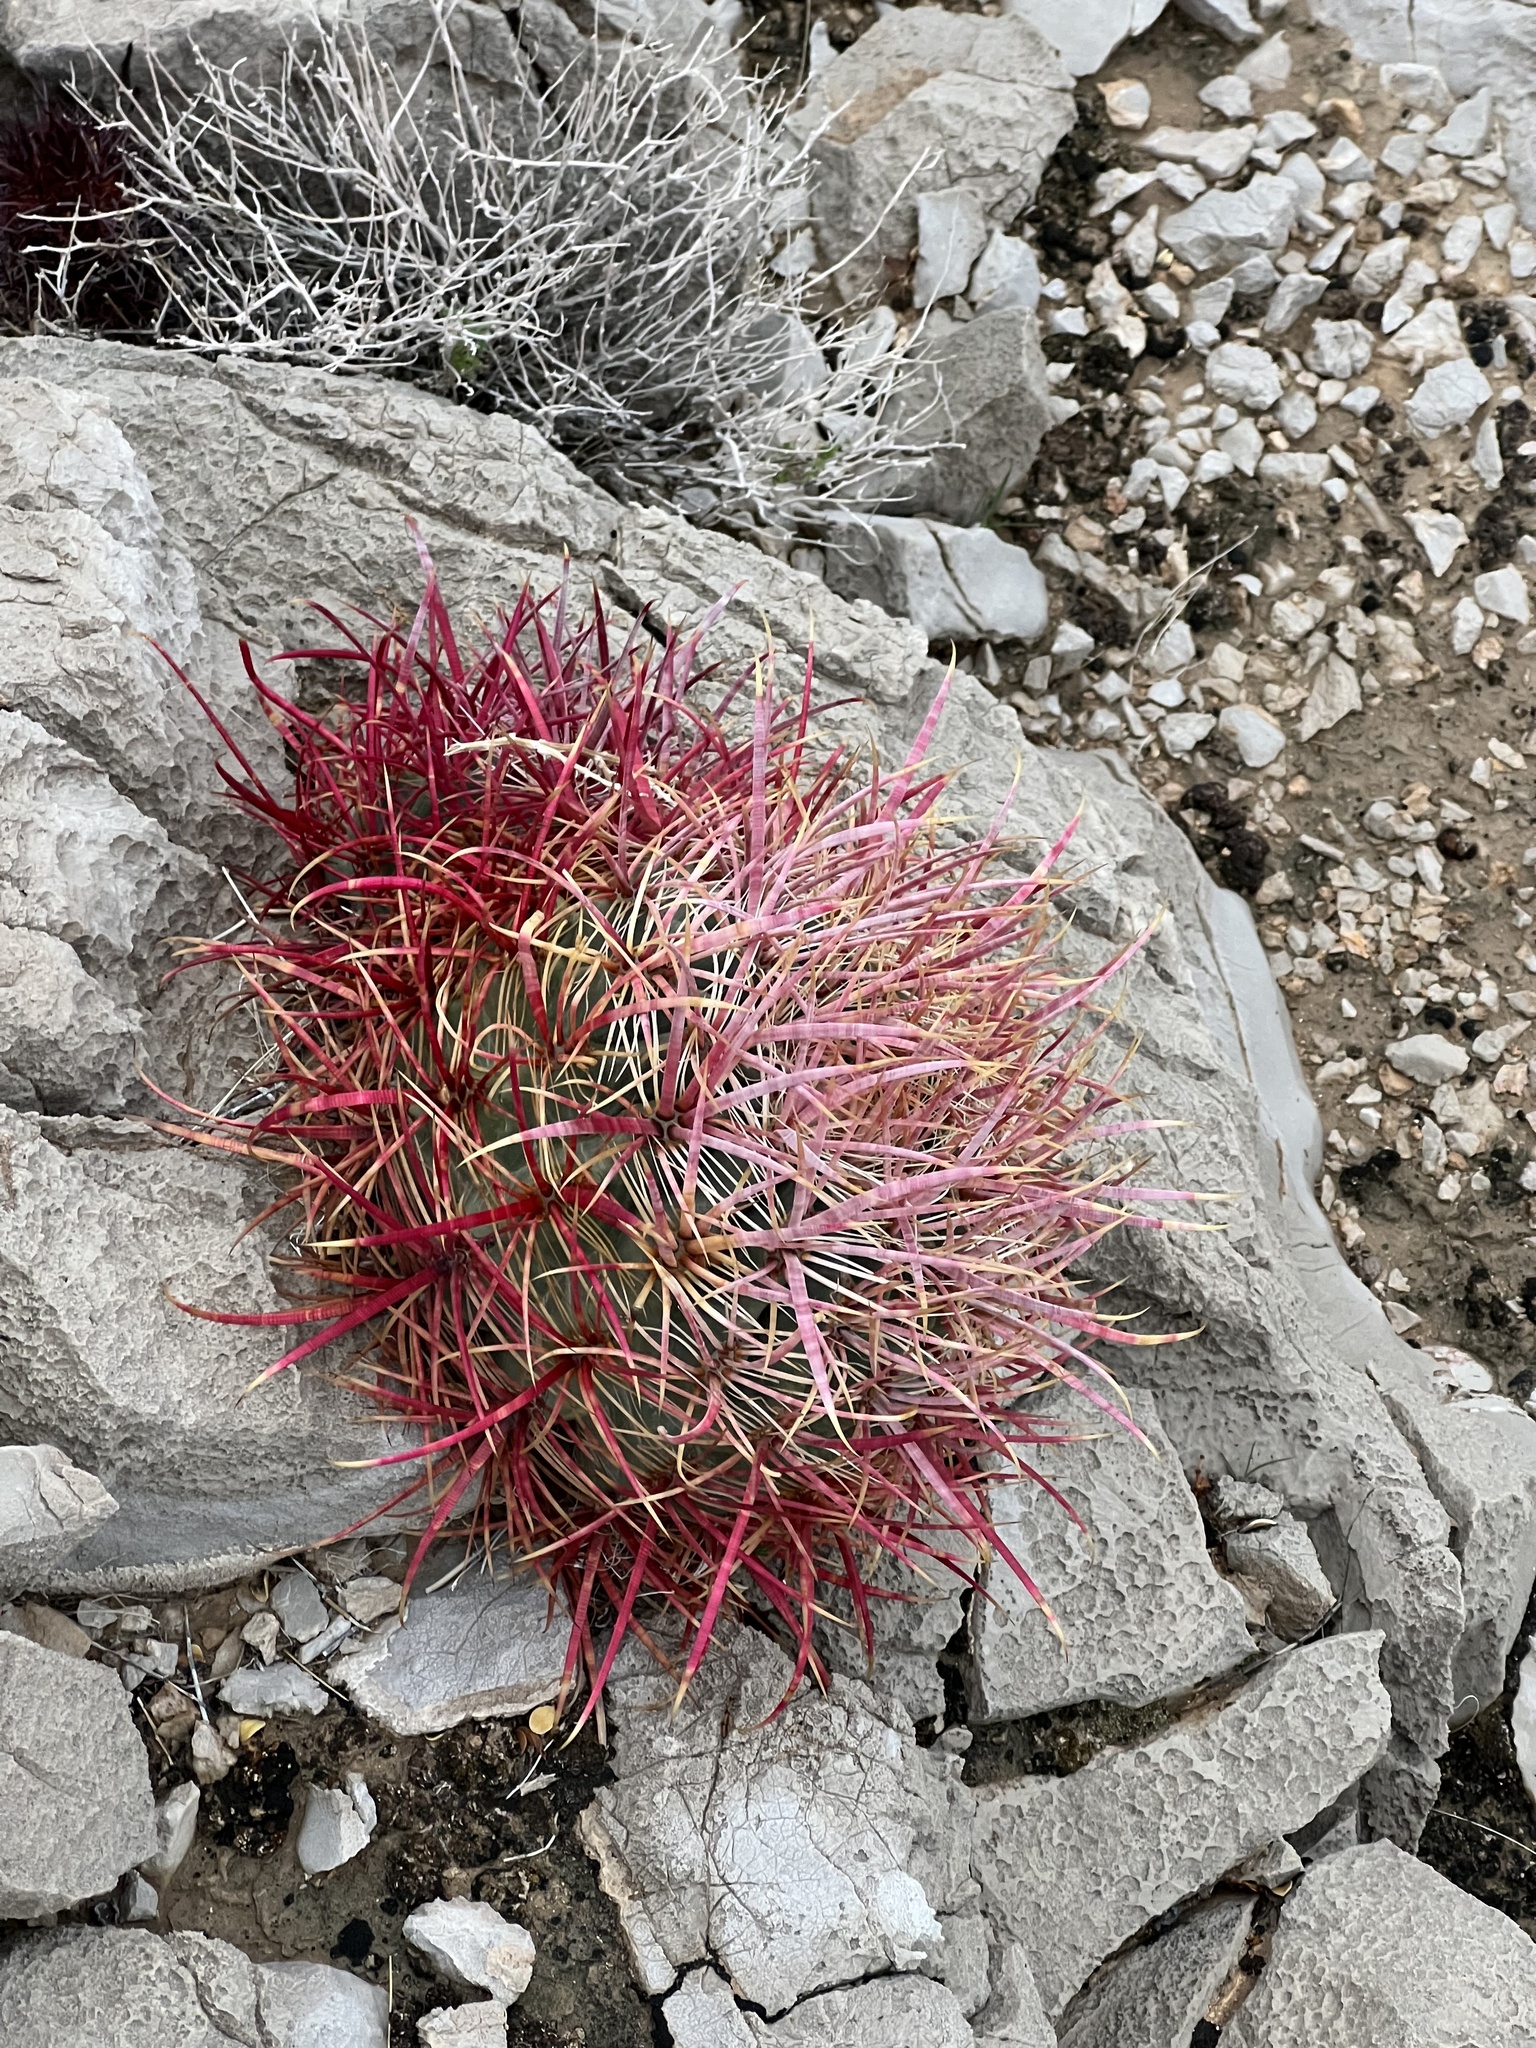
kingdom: Plantae
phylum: Tracheophyta
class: Magnoliopsida
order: Caryophyllales
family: Cactaceae
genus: Ferocactus
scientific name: Ferocactus cylindraceus
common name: California barrel cactus
